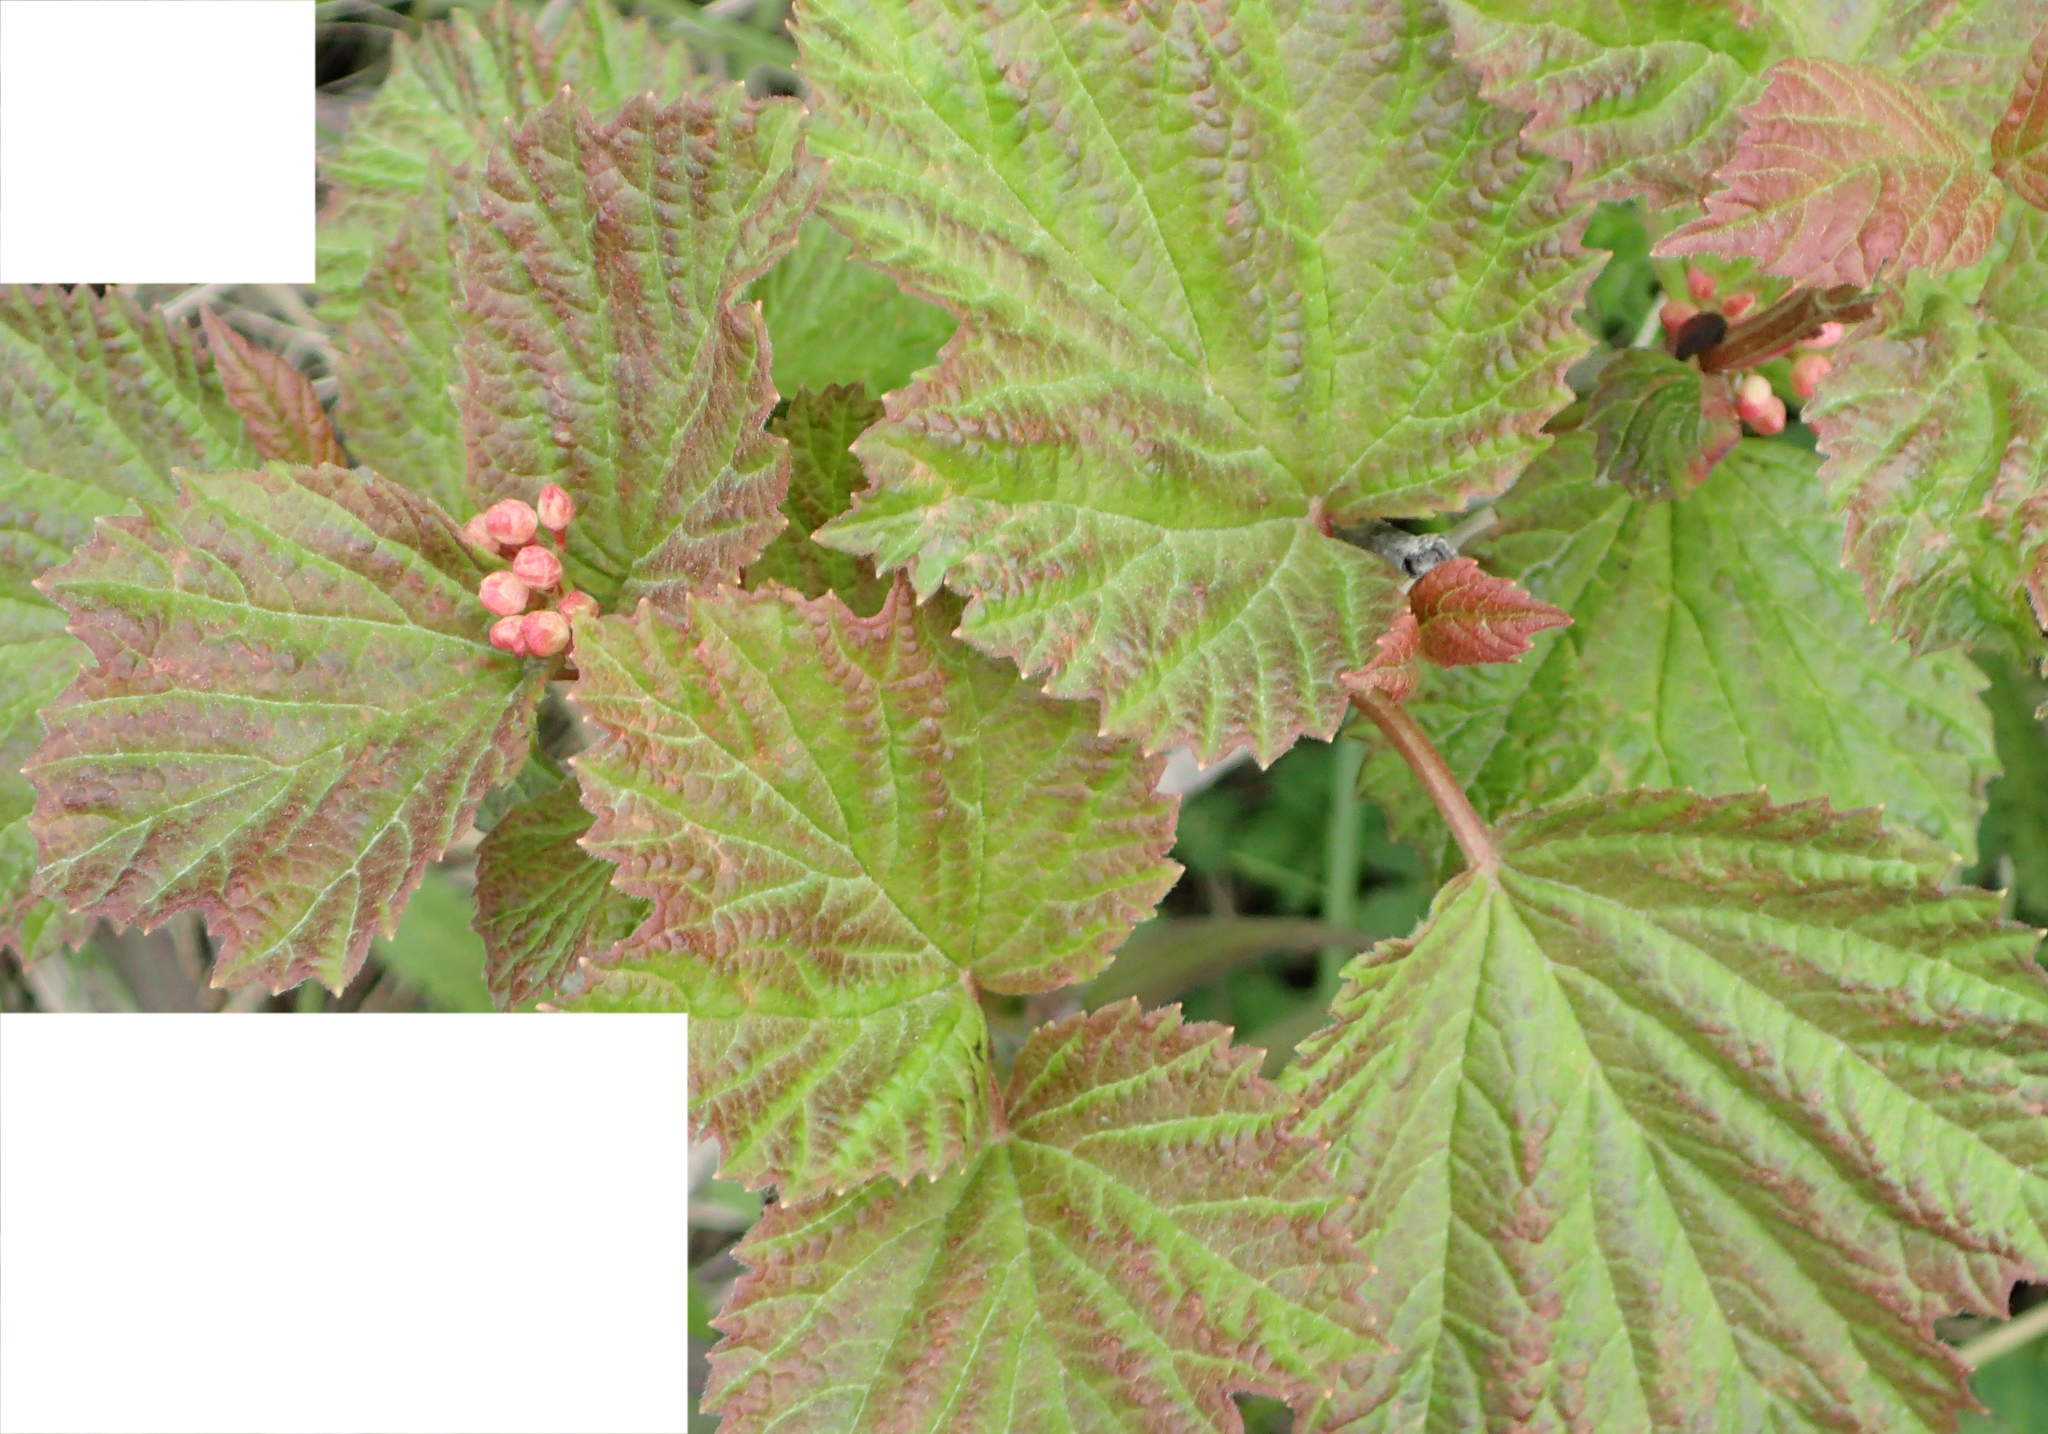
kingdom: Plantae
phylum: Tracheophyta
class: Magnoliopsida
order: Dipsacales
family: Viburnaceae
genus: Viburnum
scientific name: Viburnum edule
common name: Mooseberry
